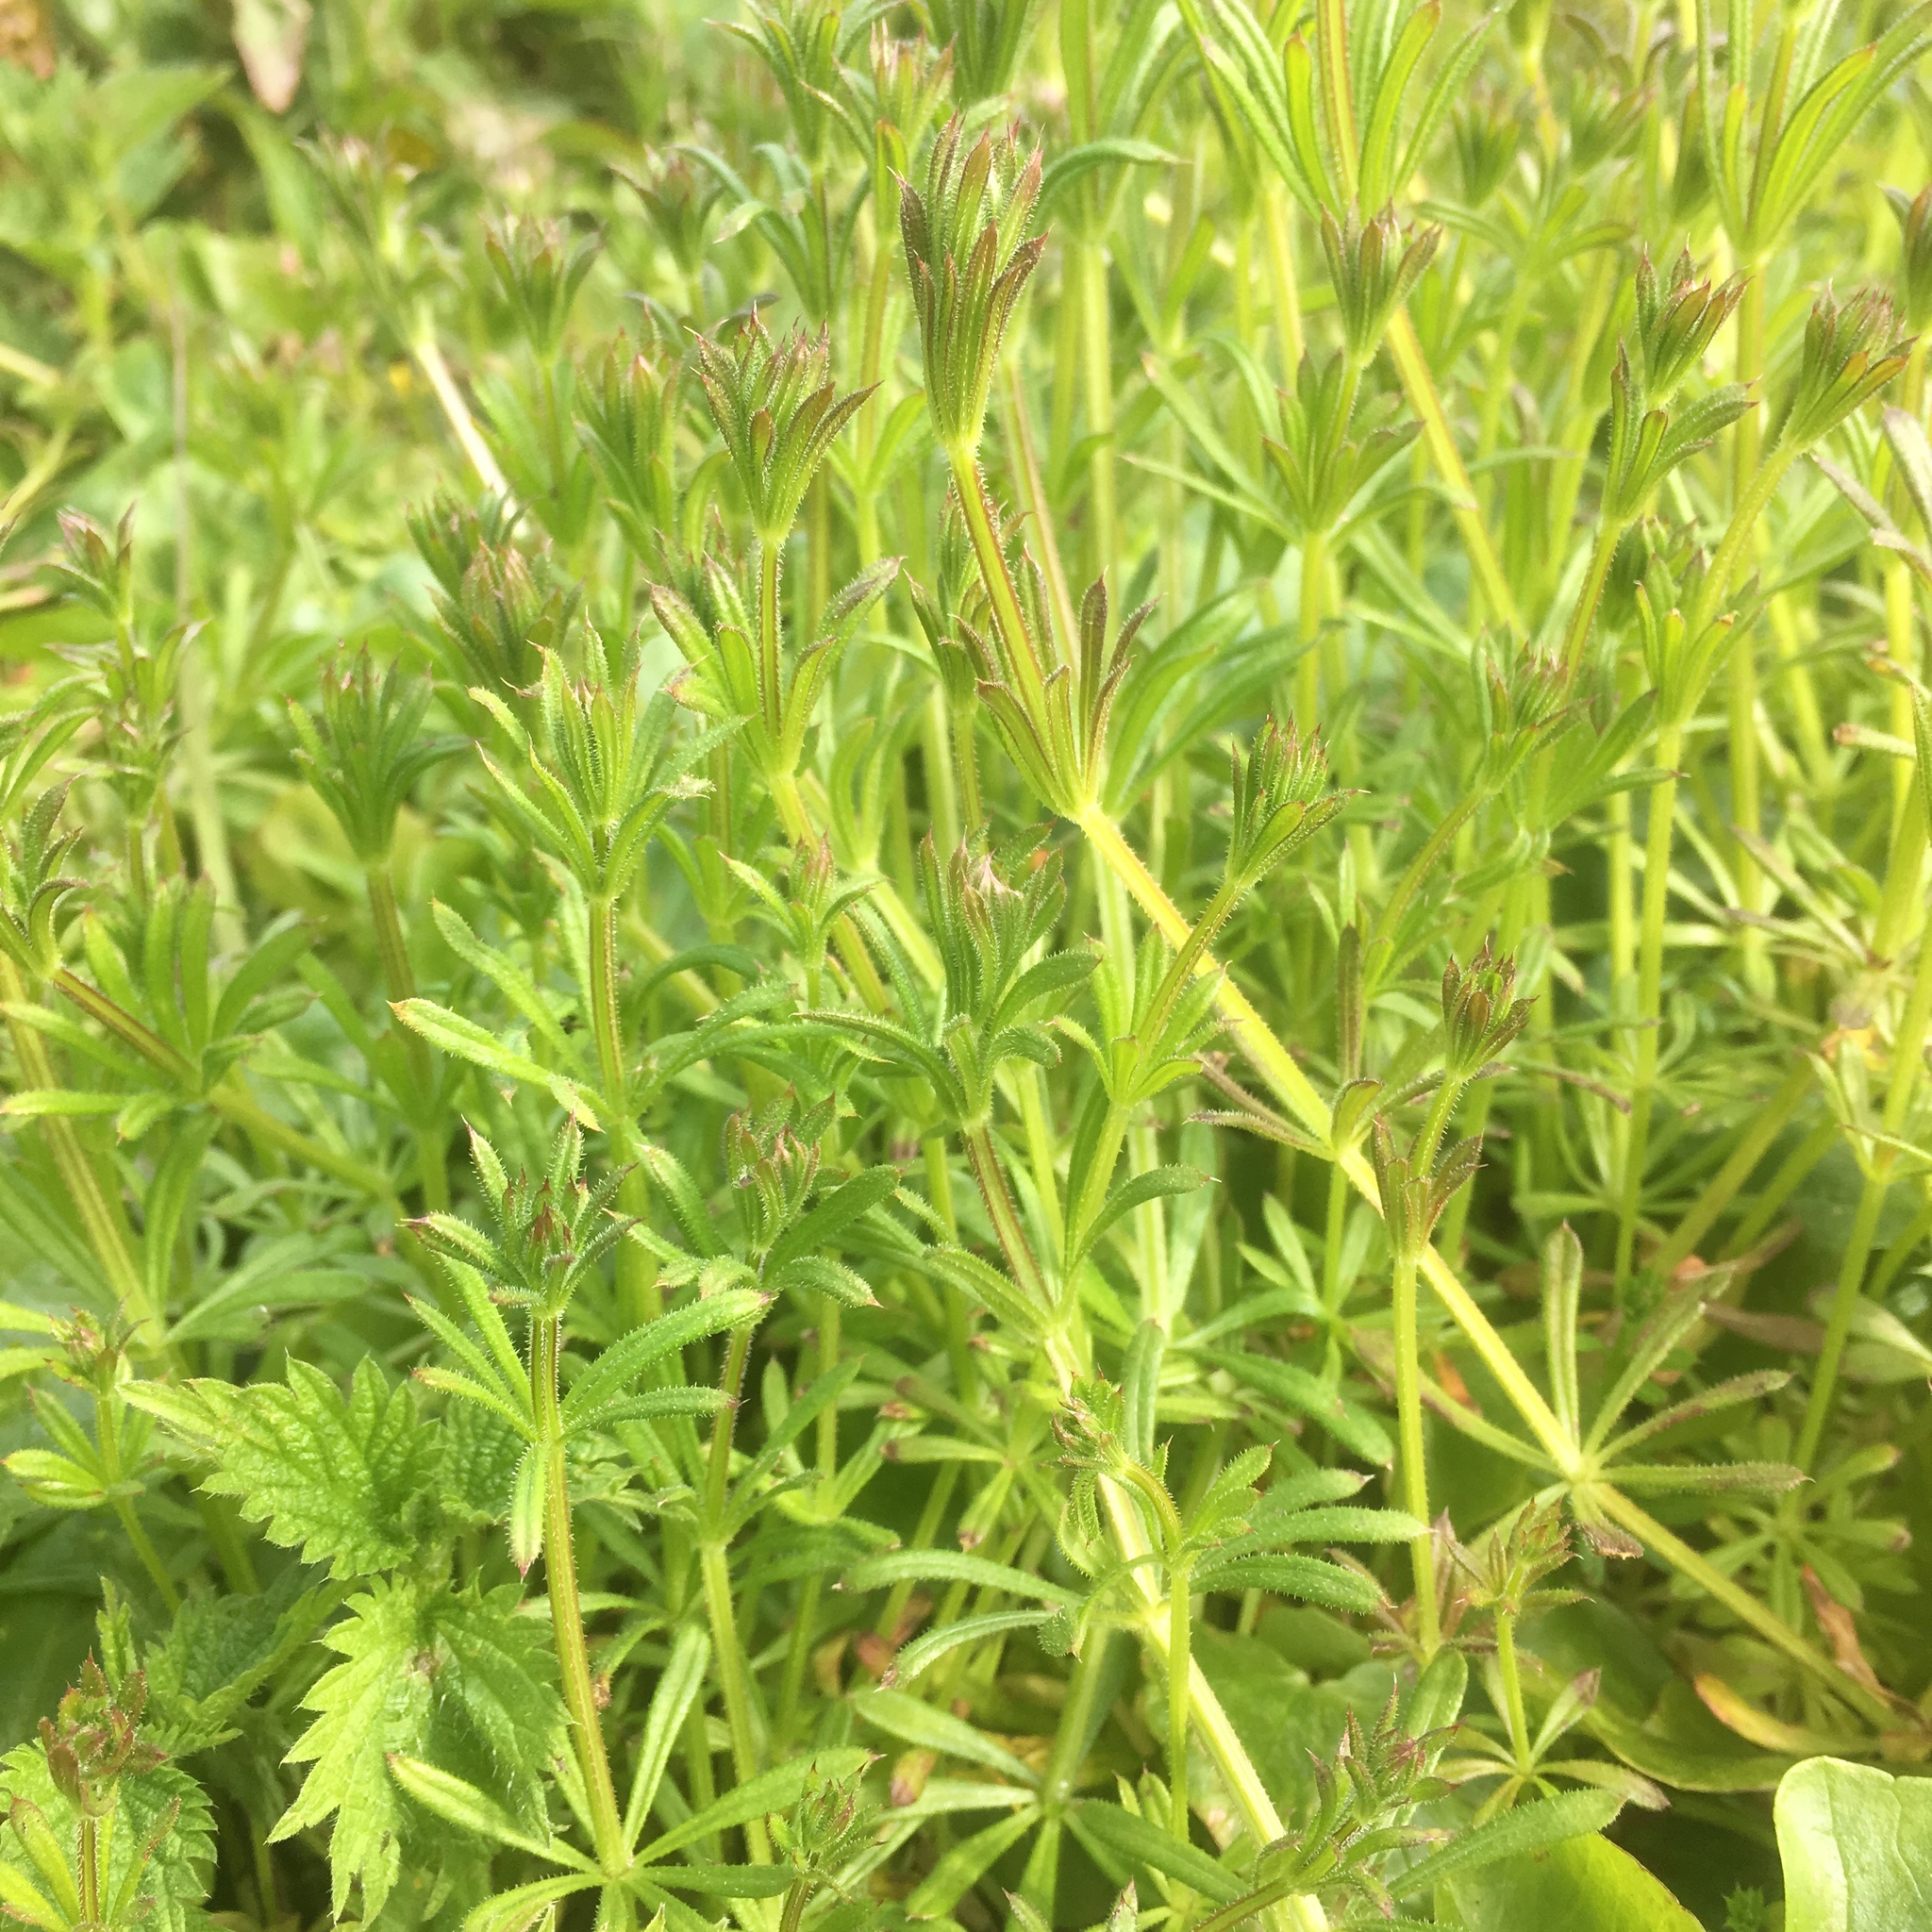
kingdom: Plantae
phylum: Tracheophyta
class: Magnoliopsida
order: Gentianales
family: Rubiaceae
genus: Galium
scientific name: Galium aparine
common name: Cleavers
